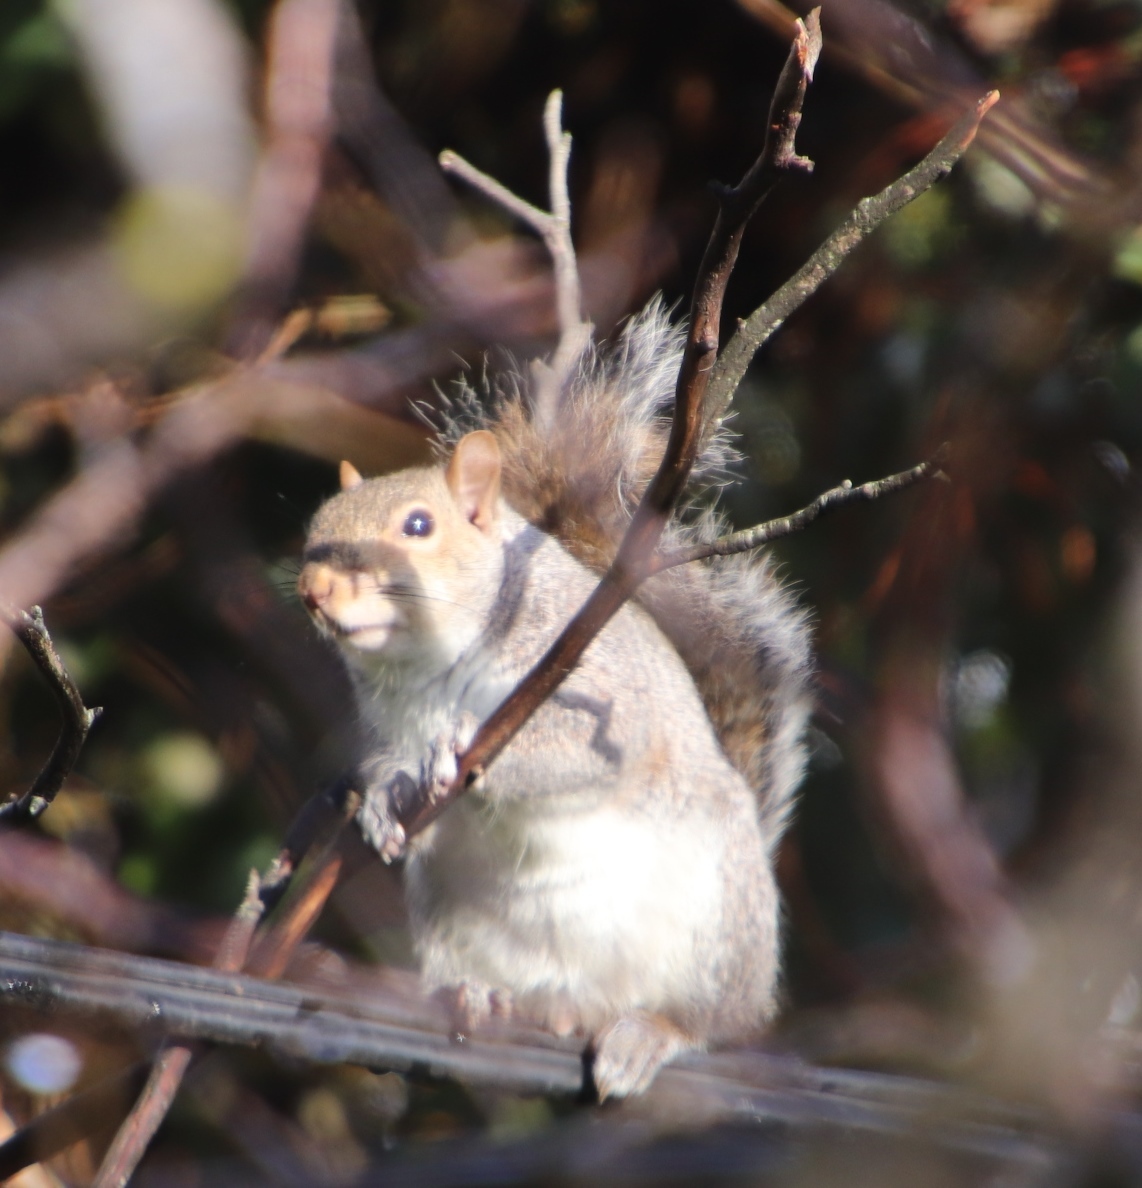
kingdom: Animalia
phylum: Chordata
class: Mammalia
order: Rodentia
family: Sciuridae
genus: Sciurus
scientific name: Sciurus carolinensis
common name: Eastern gray squirrel
